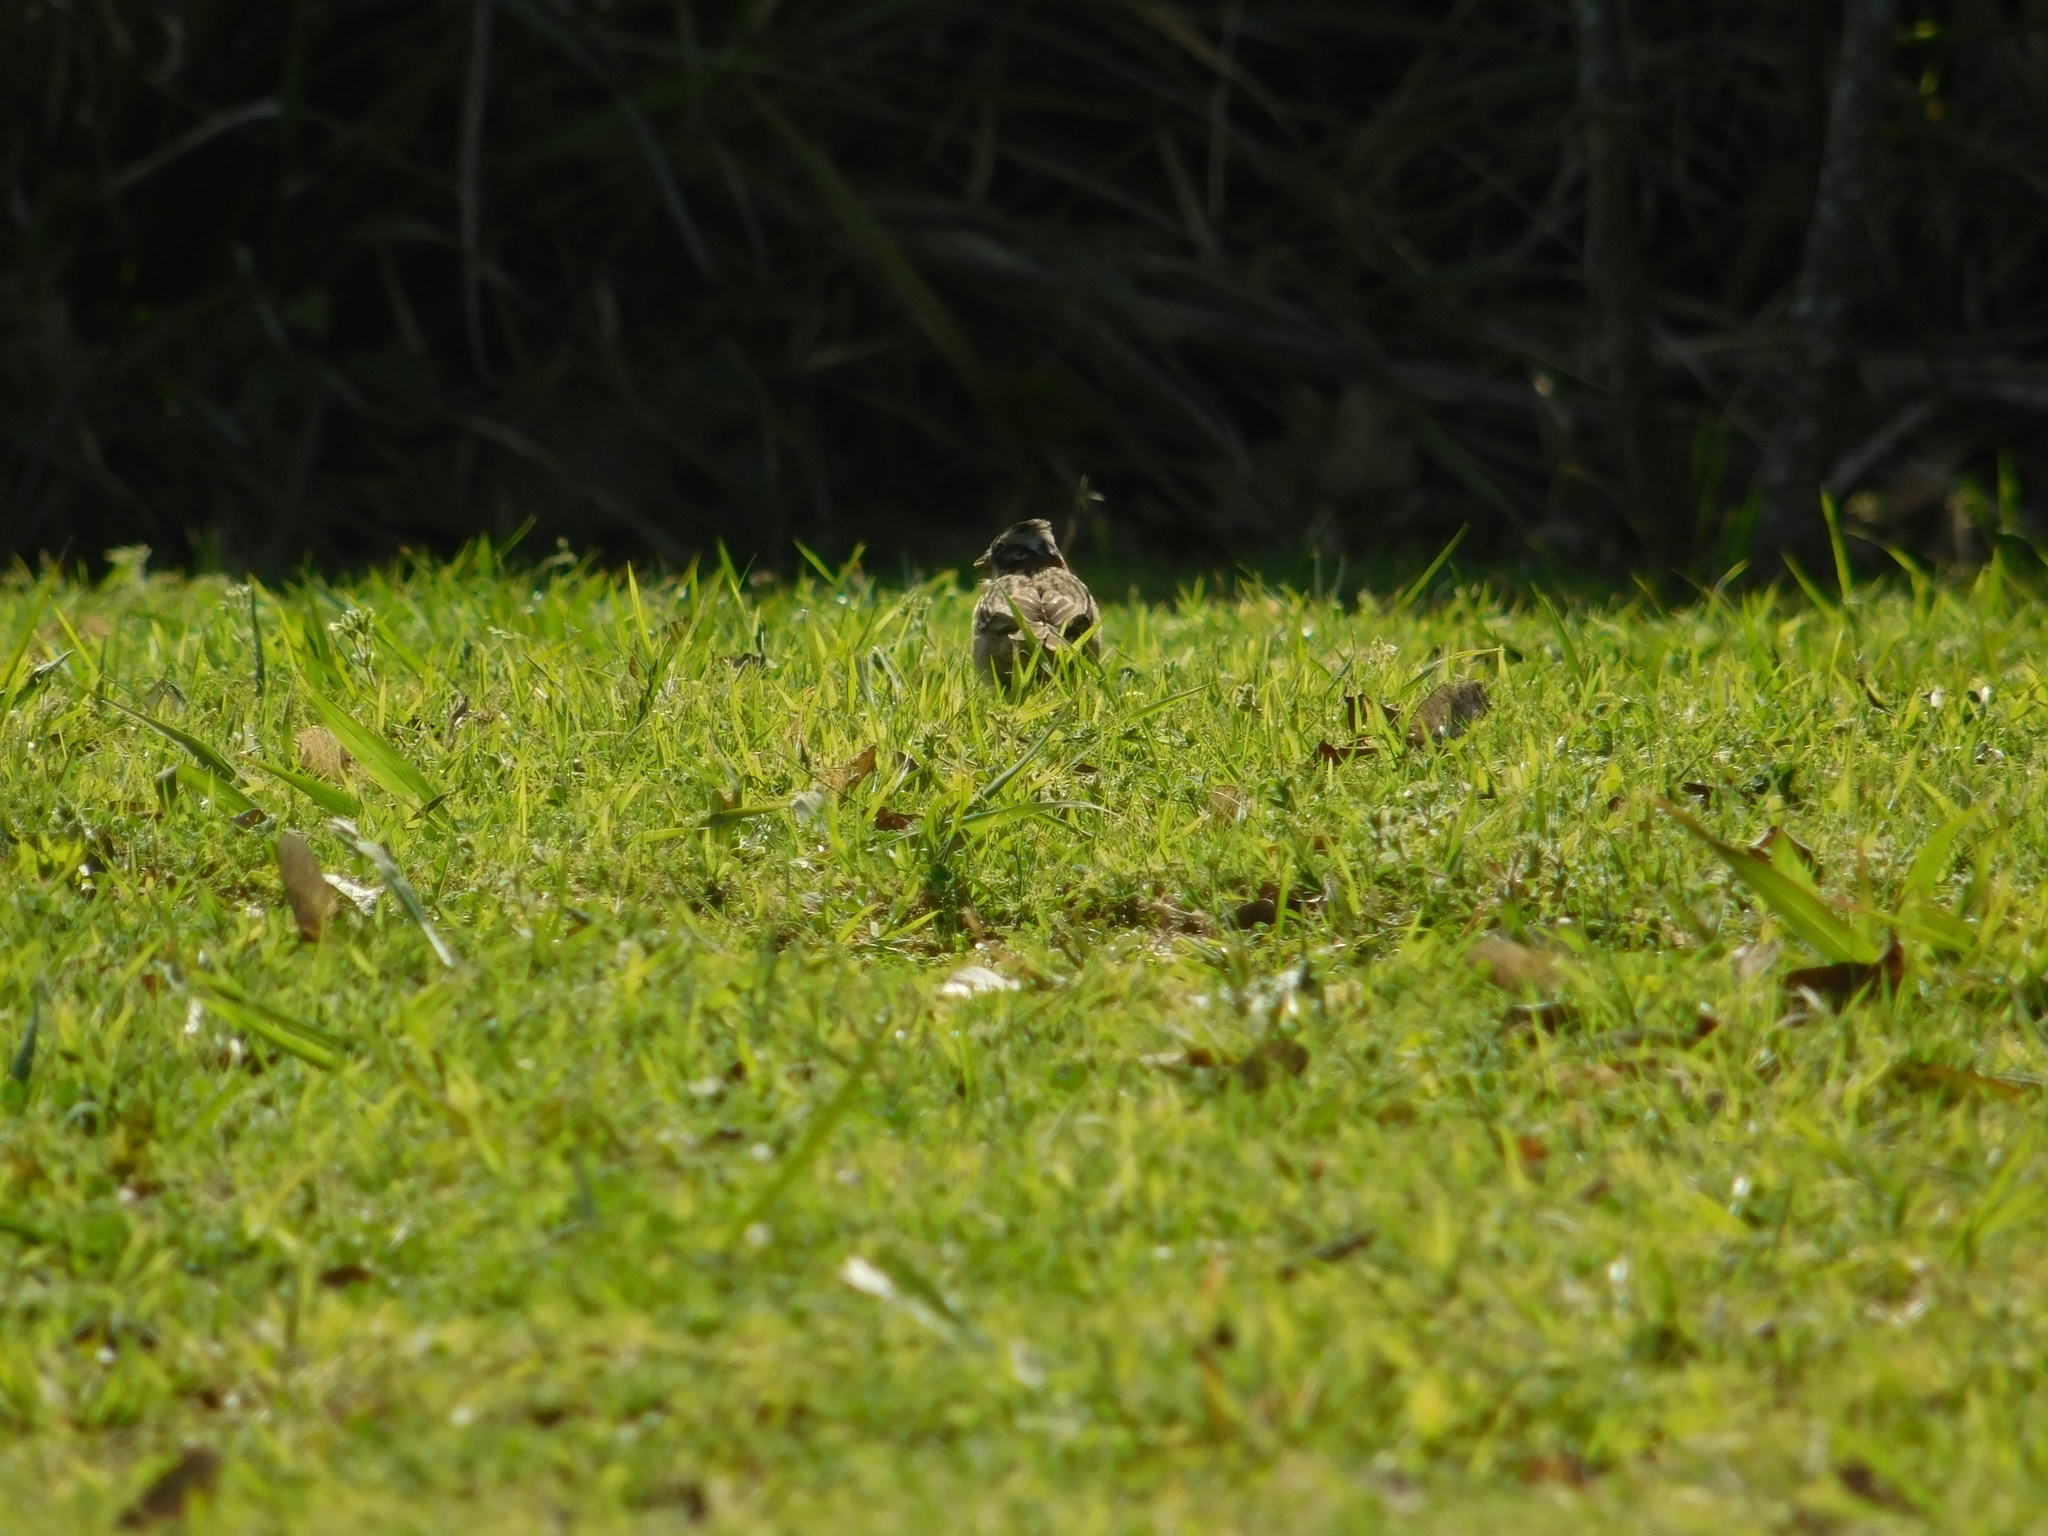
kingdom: Animalia
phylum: Chordata
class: Aves
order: Passeriformes
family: Passerellidae
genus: Zonotrichia
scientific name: Zonotrichia capensis
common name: Rufous-collared sparrow
